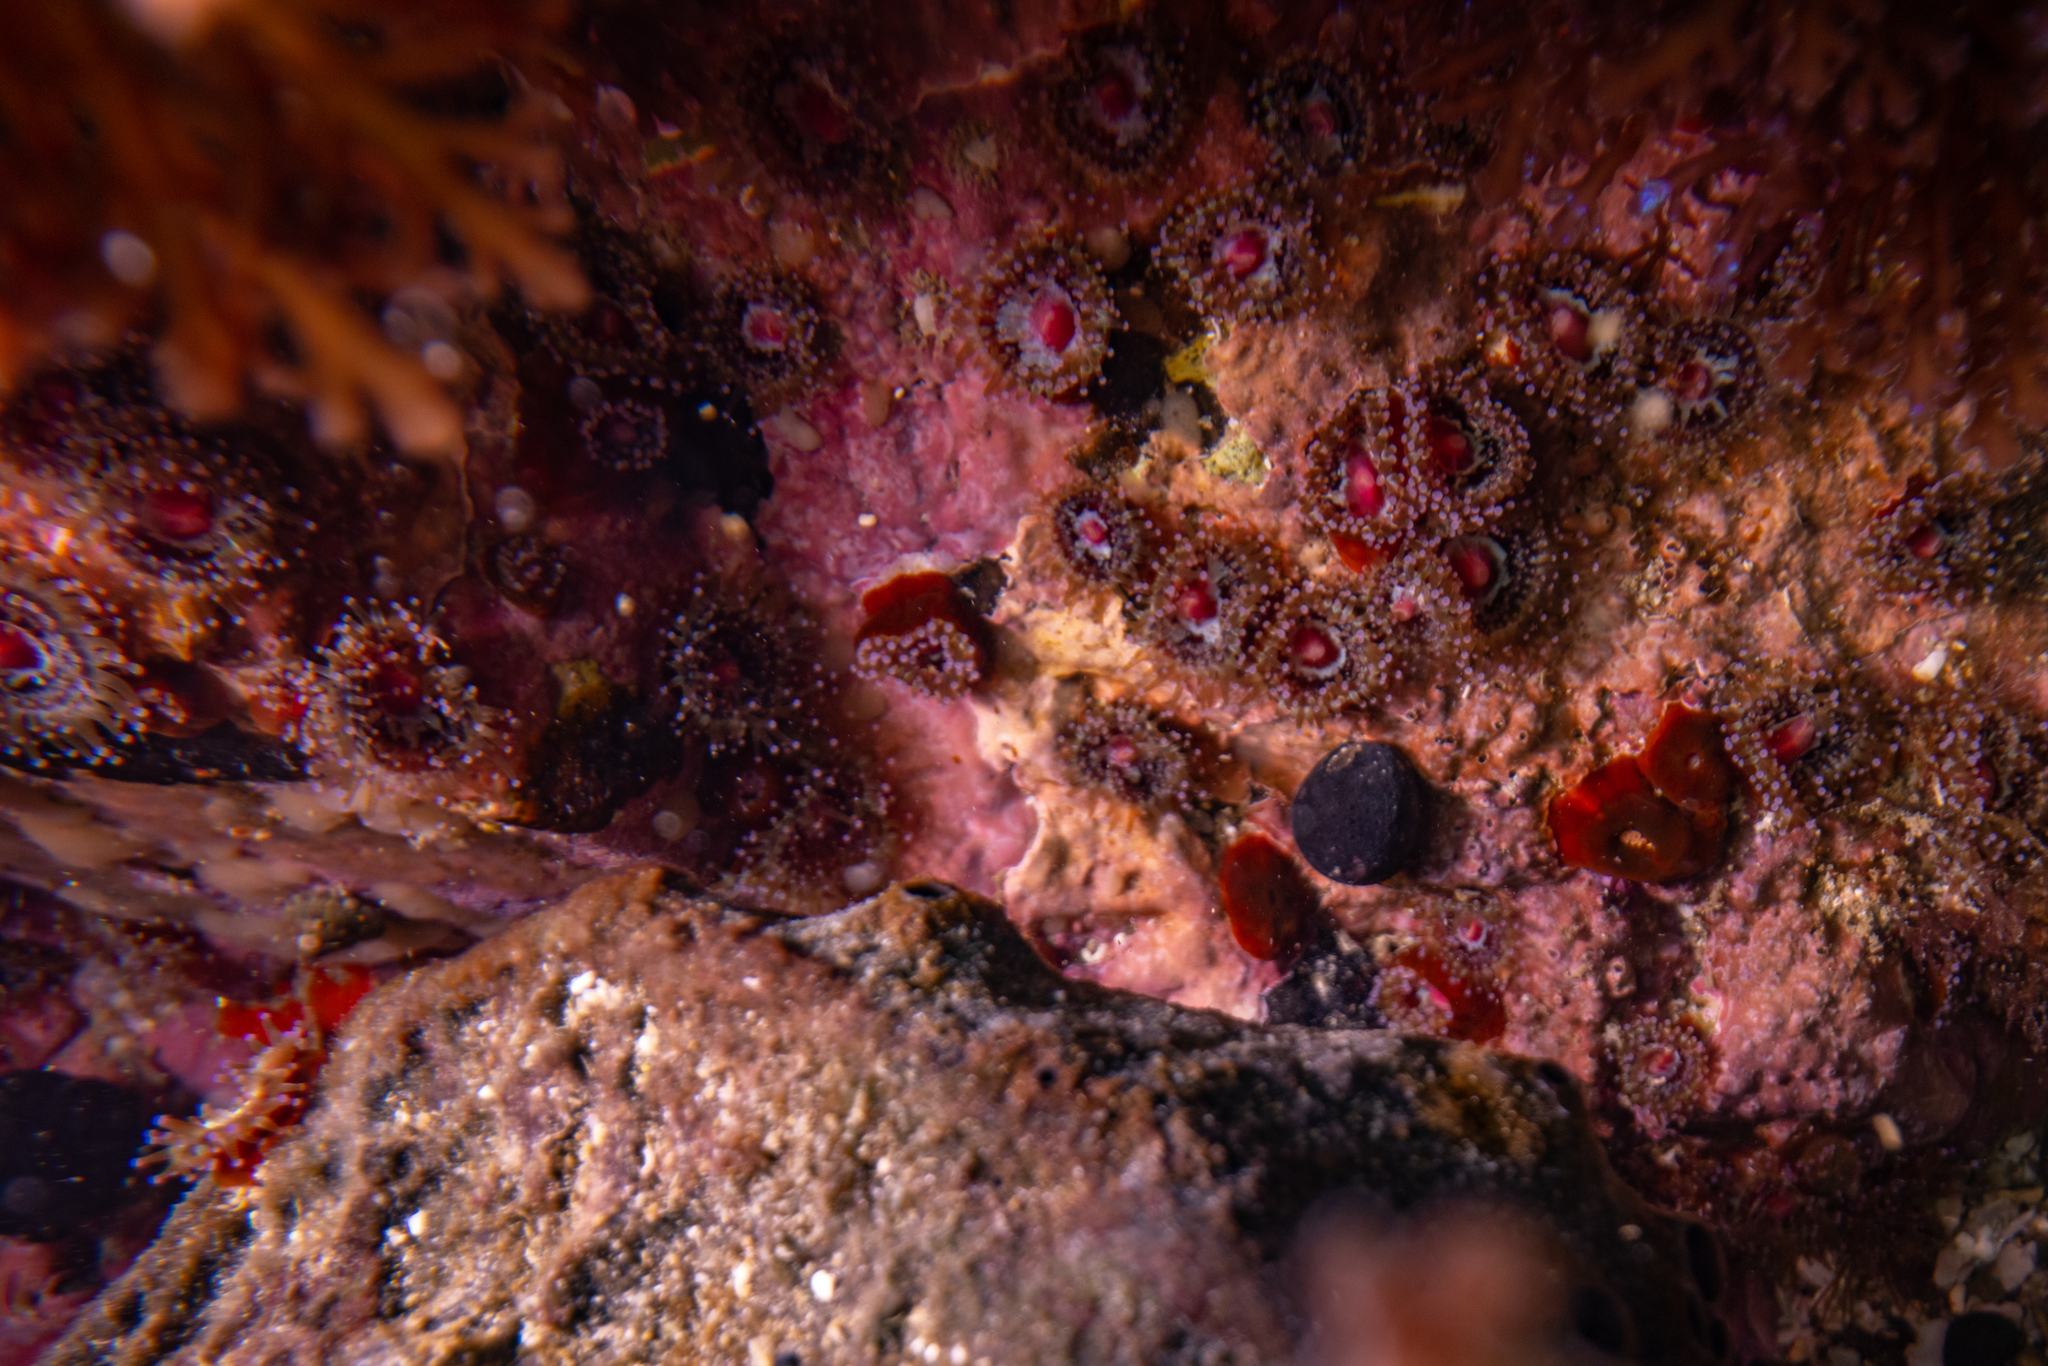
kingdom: Animalia
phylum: Cnidaria
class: Anthozoa
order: Corallimorpharia
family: Corallimorphidae
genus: Corynactis
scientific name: Corynactis australis
